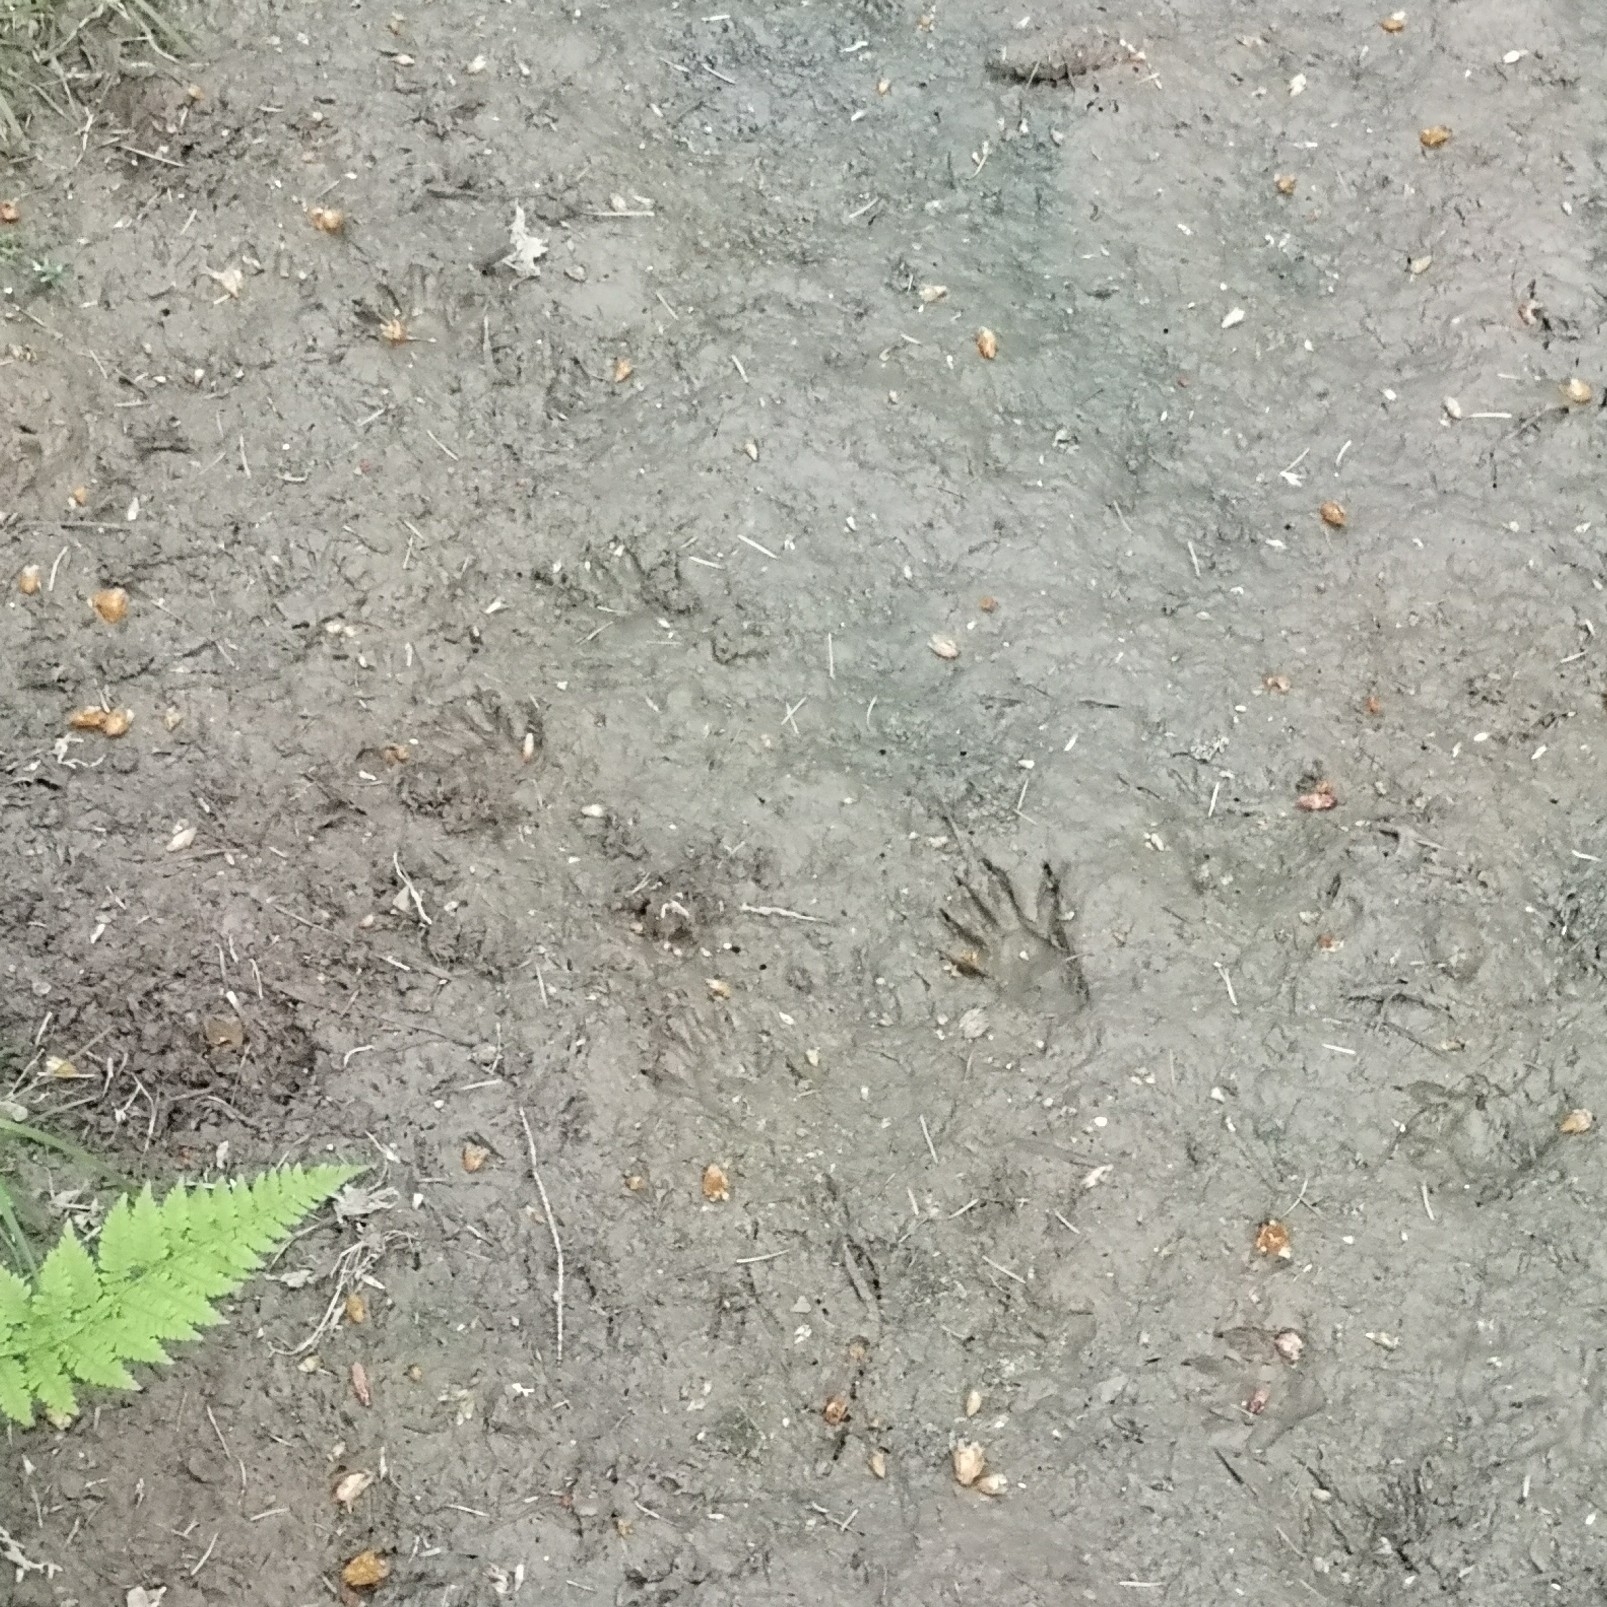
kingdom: Animalia
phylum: Chordata
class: Mammalia
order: Carnivora
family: Procyonidae
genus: Procyon
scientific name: Procyon lotor
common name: Raccoon
